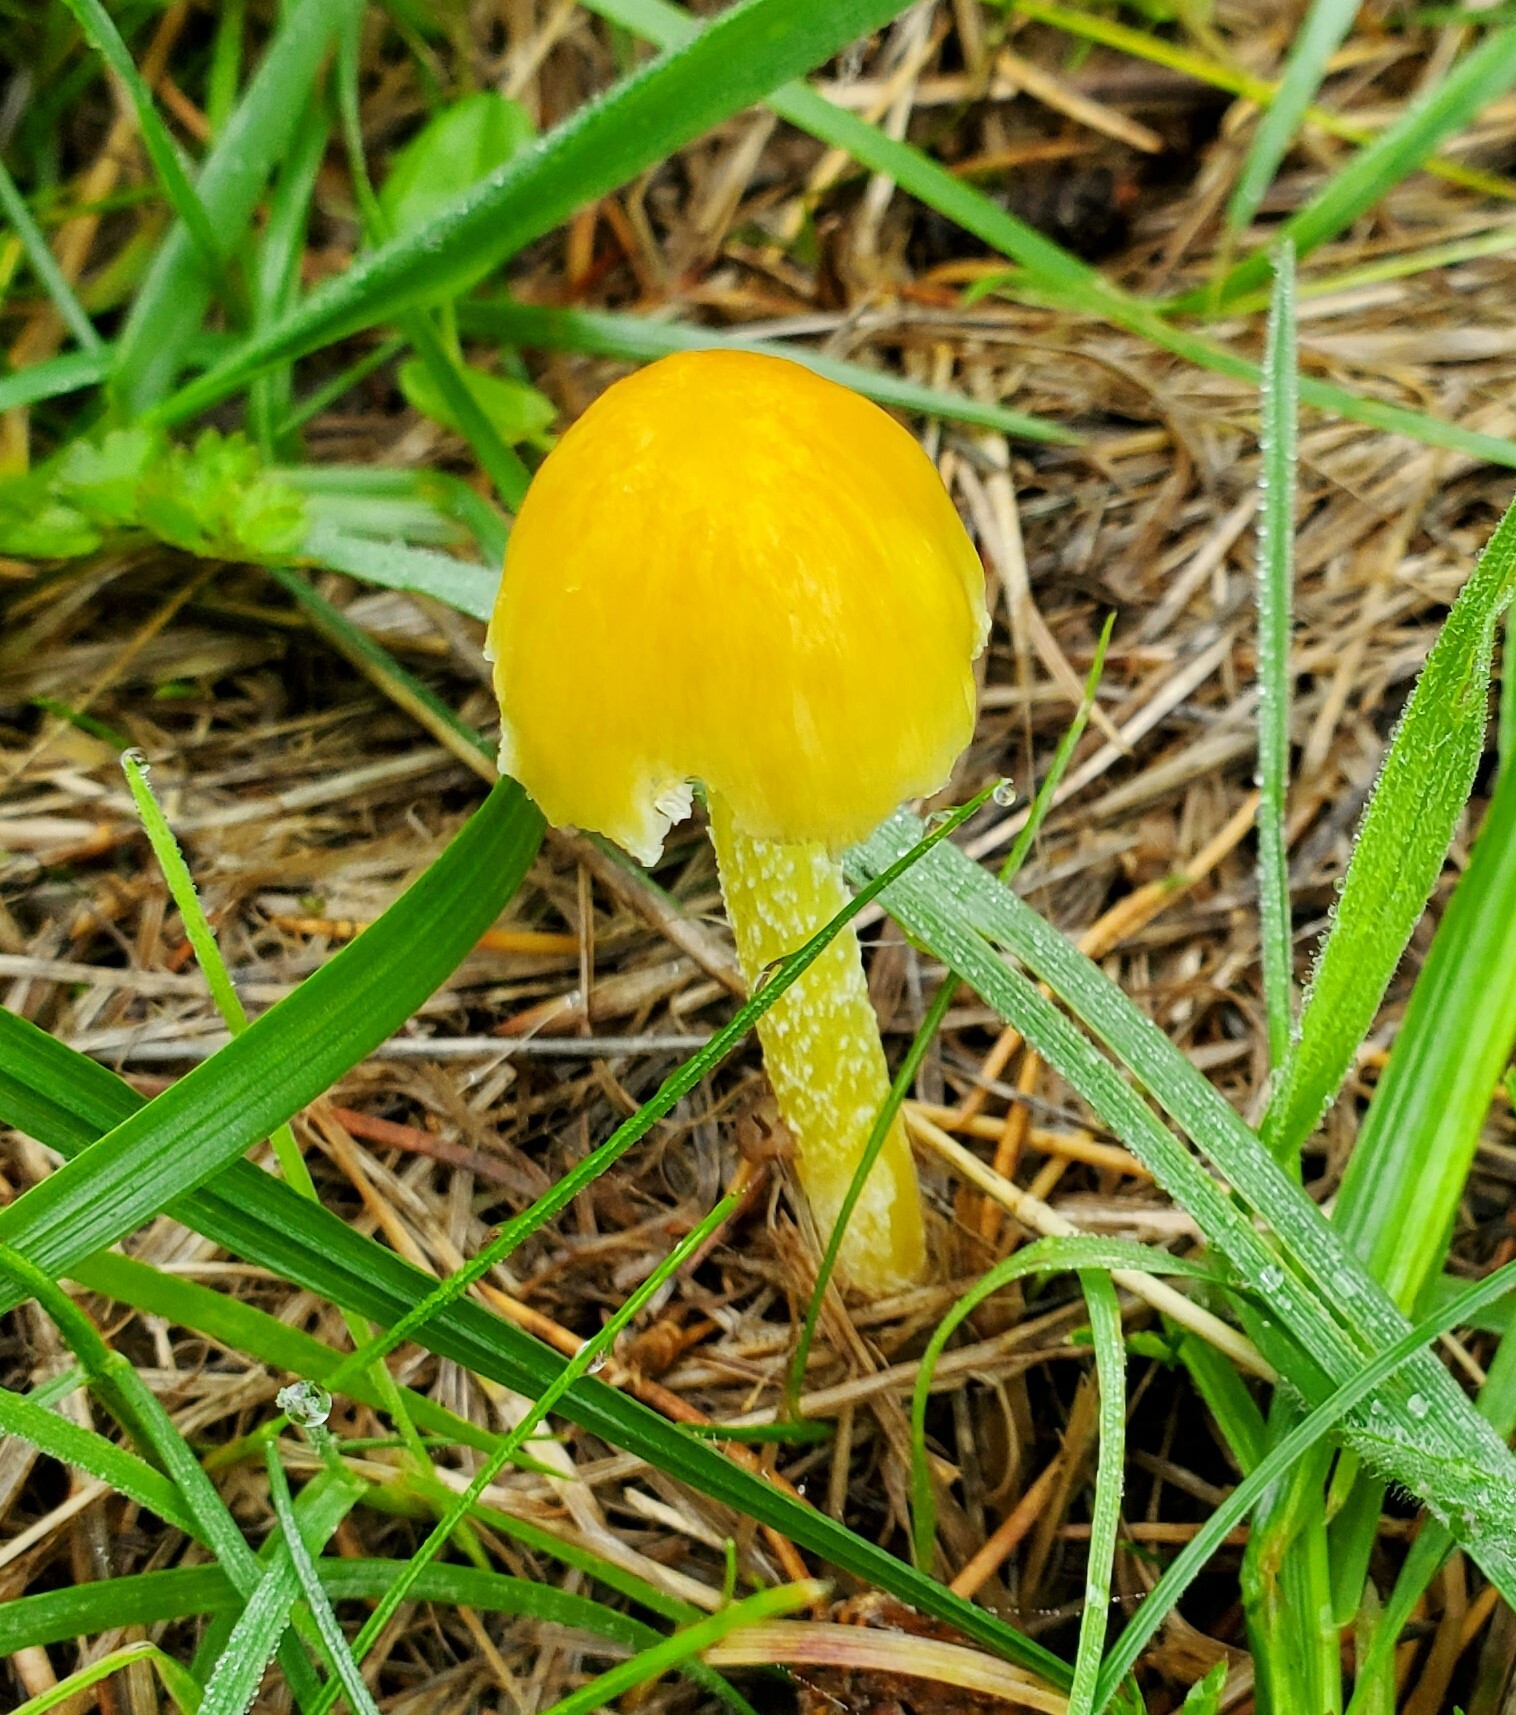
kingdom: Fungi
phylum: Basidiomycota
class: Agaricomycetes
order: Agaricales
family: Bolbitiaceae
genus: Bolbitius
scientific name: Bolbitius titubans
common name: Yellow fieldcap
